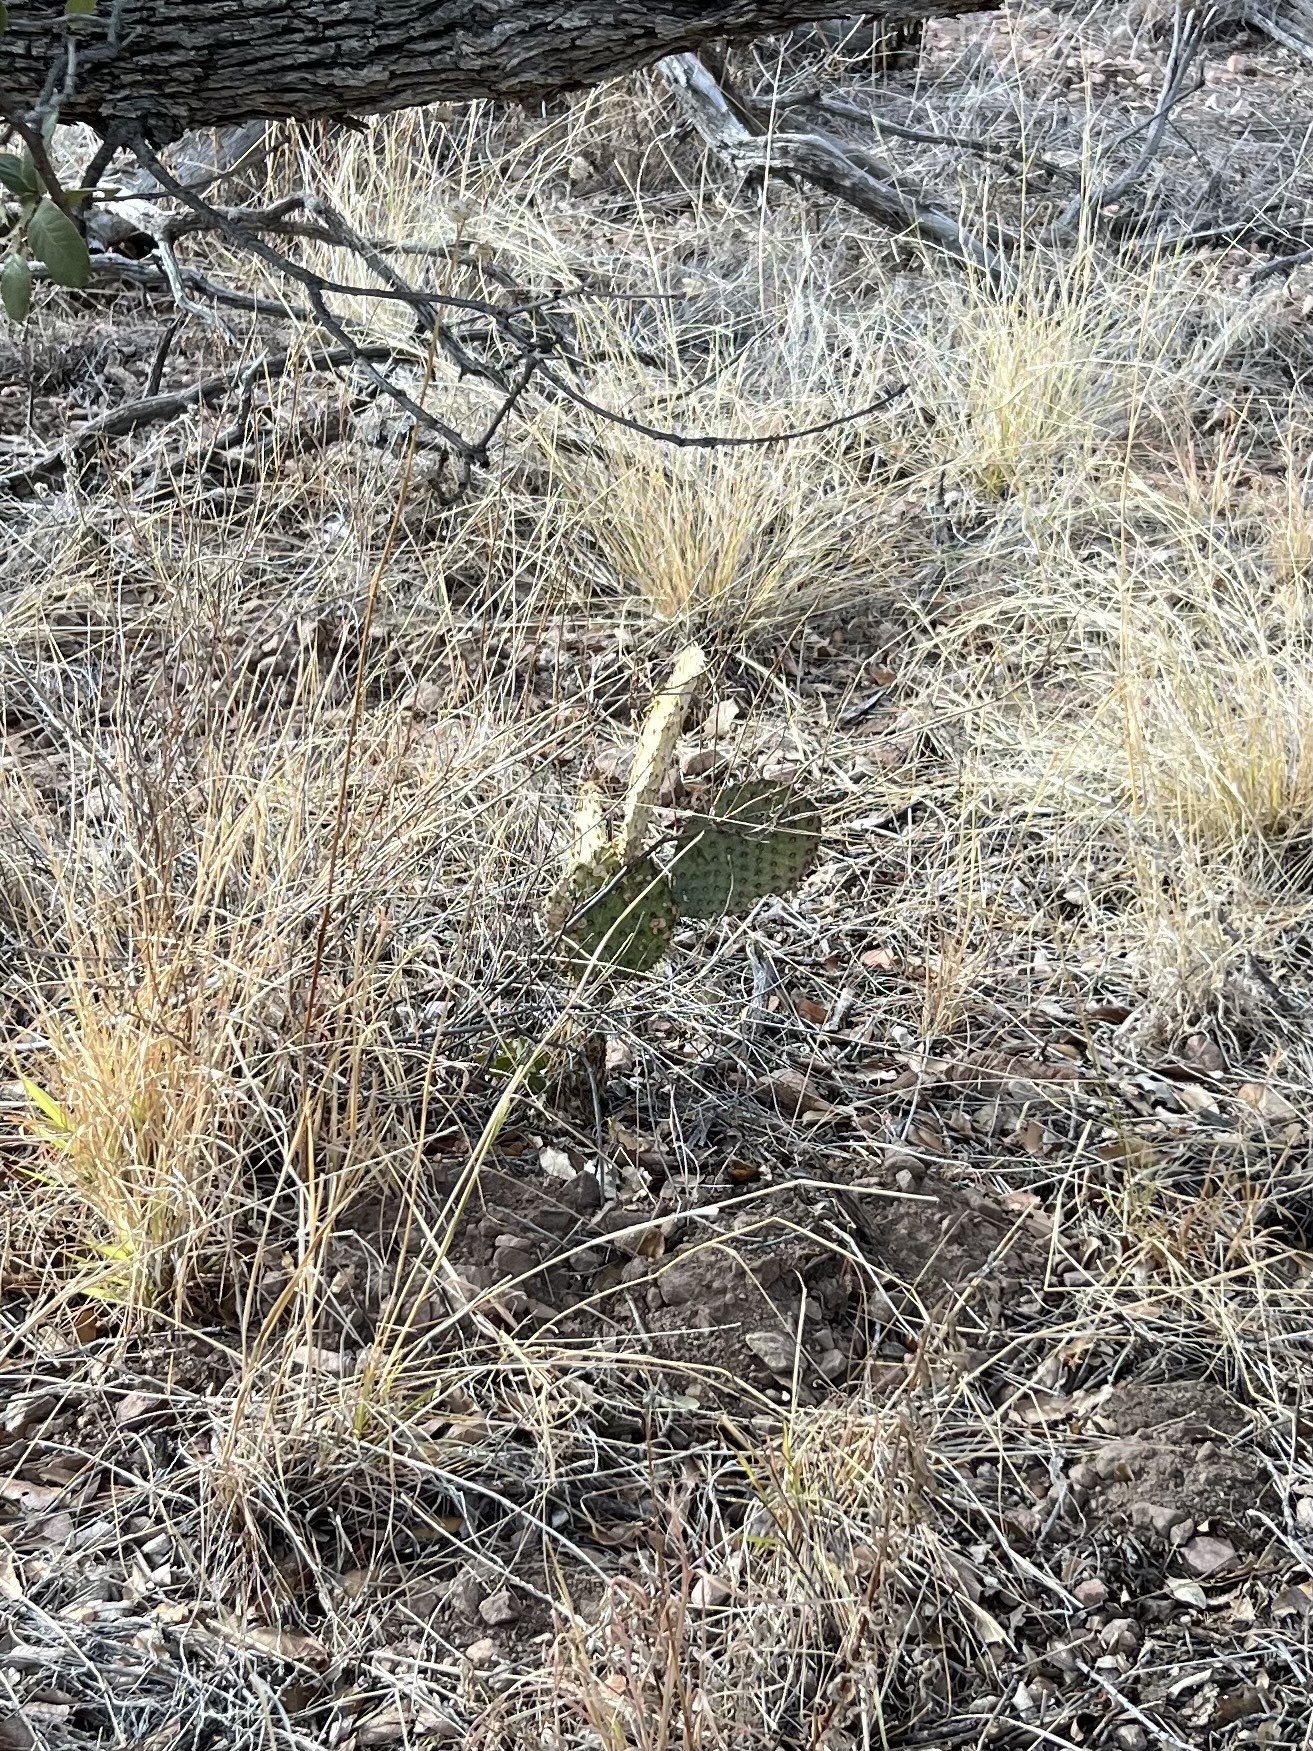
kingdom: Plantae
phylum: Tracheophyta
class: Magnoliopsida
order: Caryophyllales
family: Cactaceae
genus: Opuntia
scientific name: Opuntia chlorotica
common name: Dollar-joint prickly-pear
